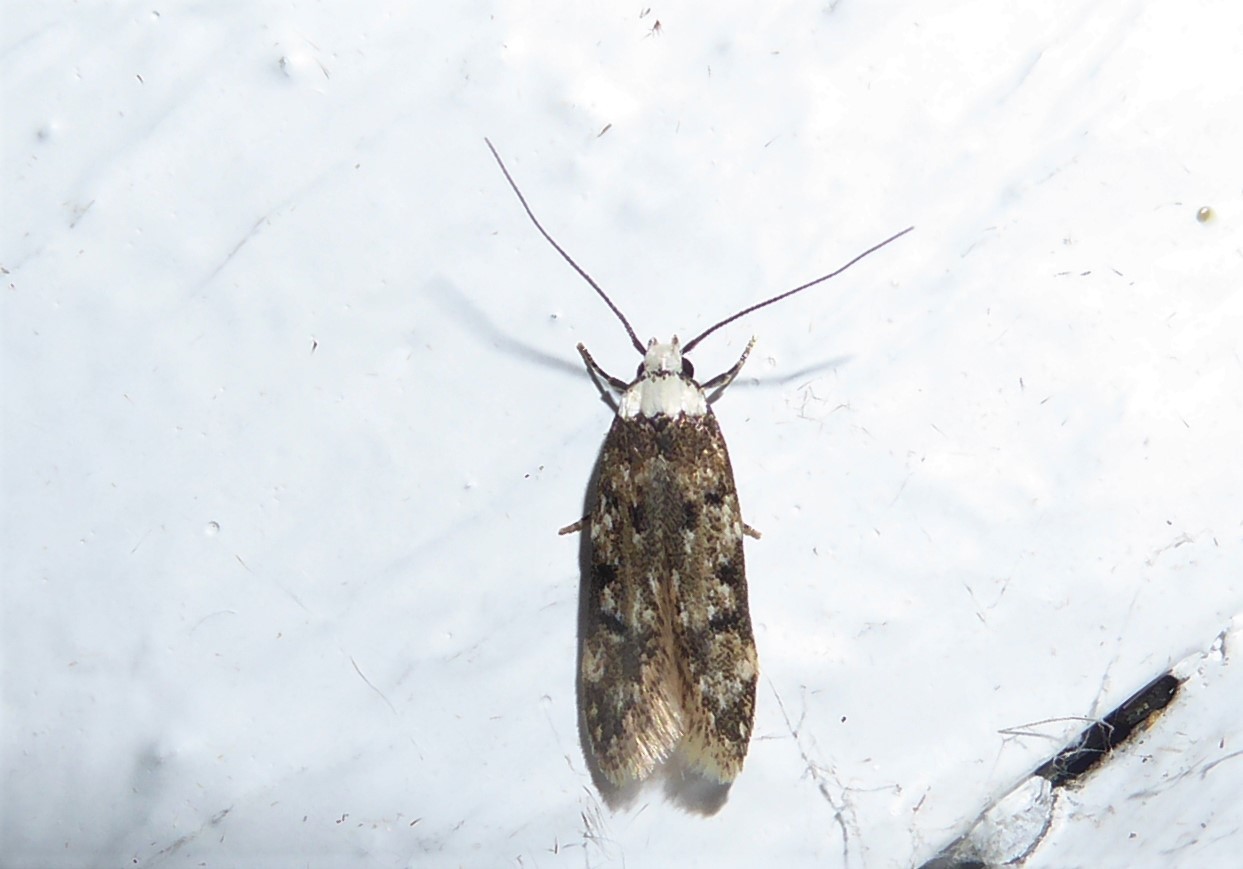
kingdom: Animalia
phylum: Arthropoda
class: Insecta
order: Lepidoptera
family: Oecophoridae
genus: Endrosis
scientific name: Endrosis sarcitrella
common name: White-shouldered house moth
